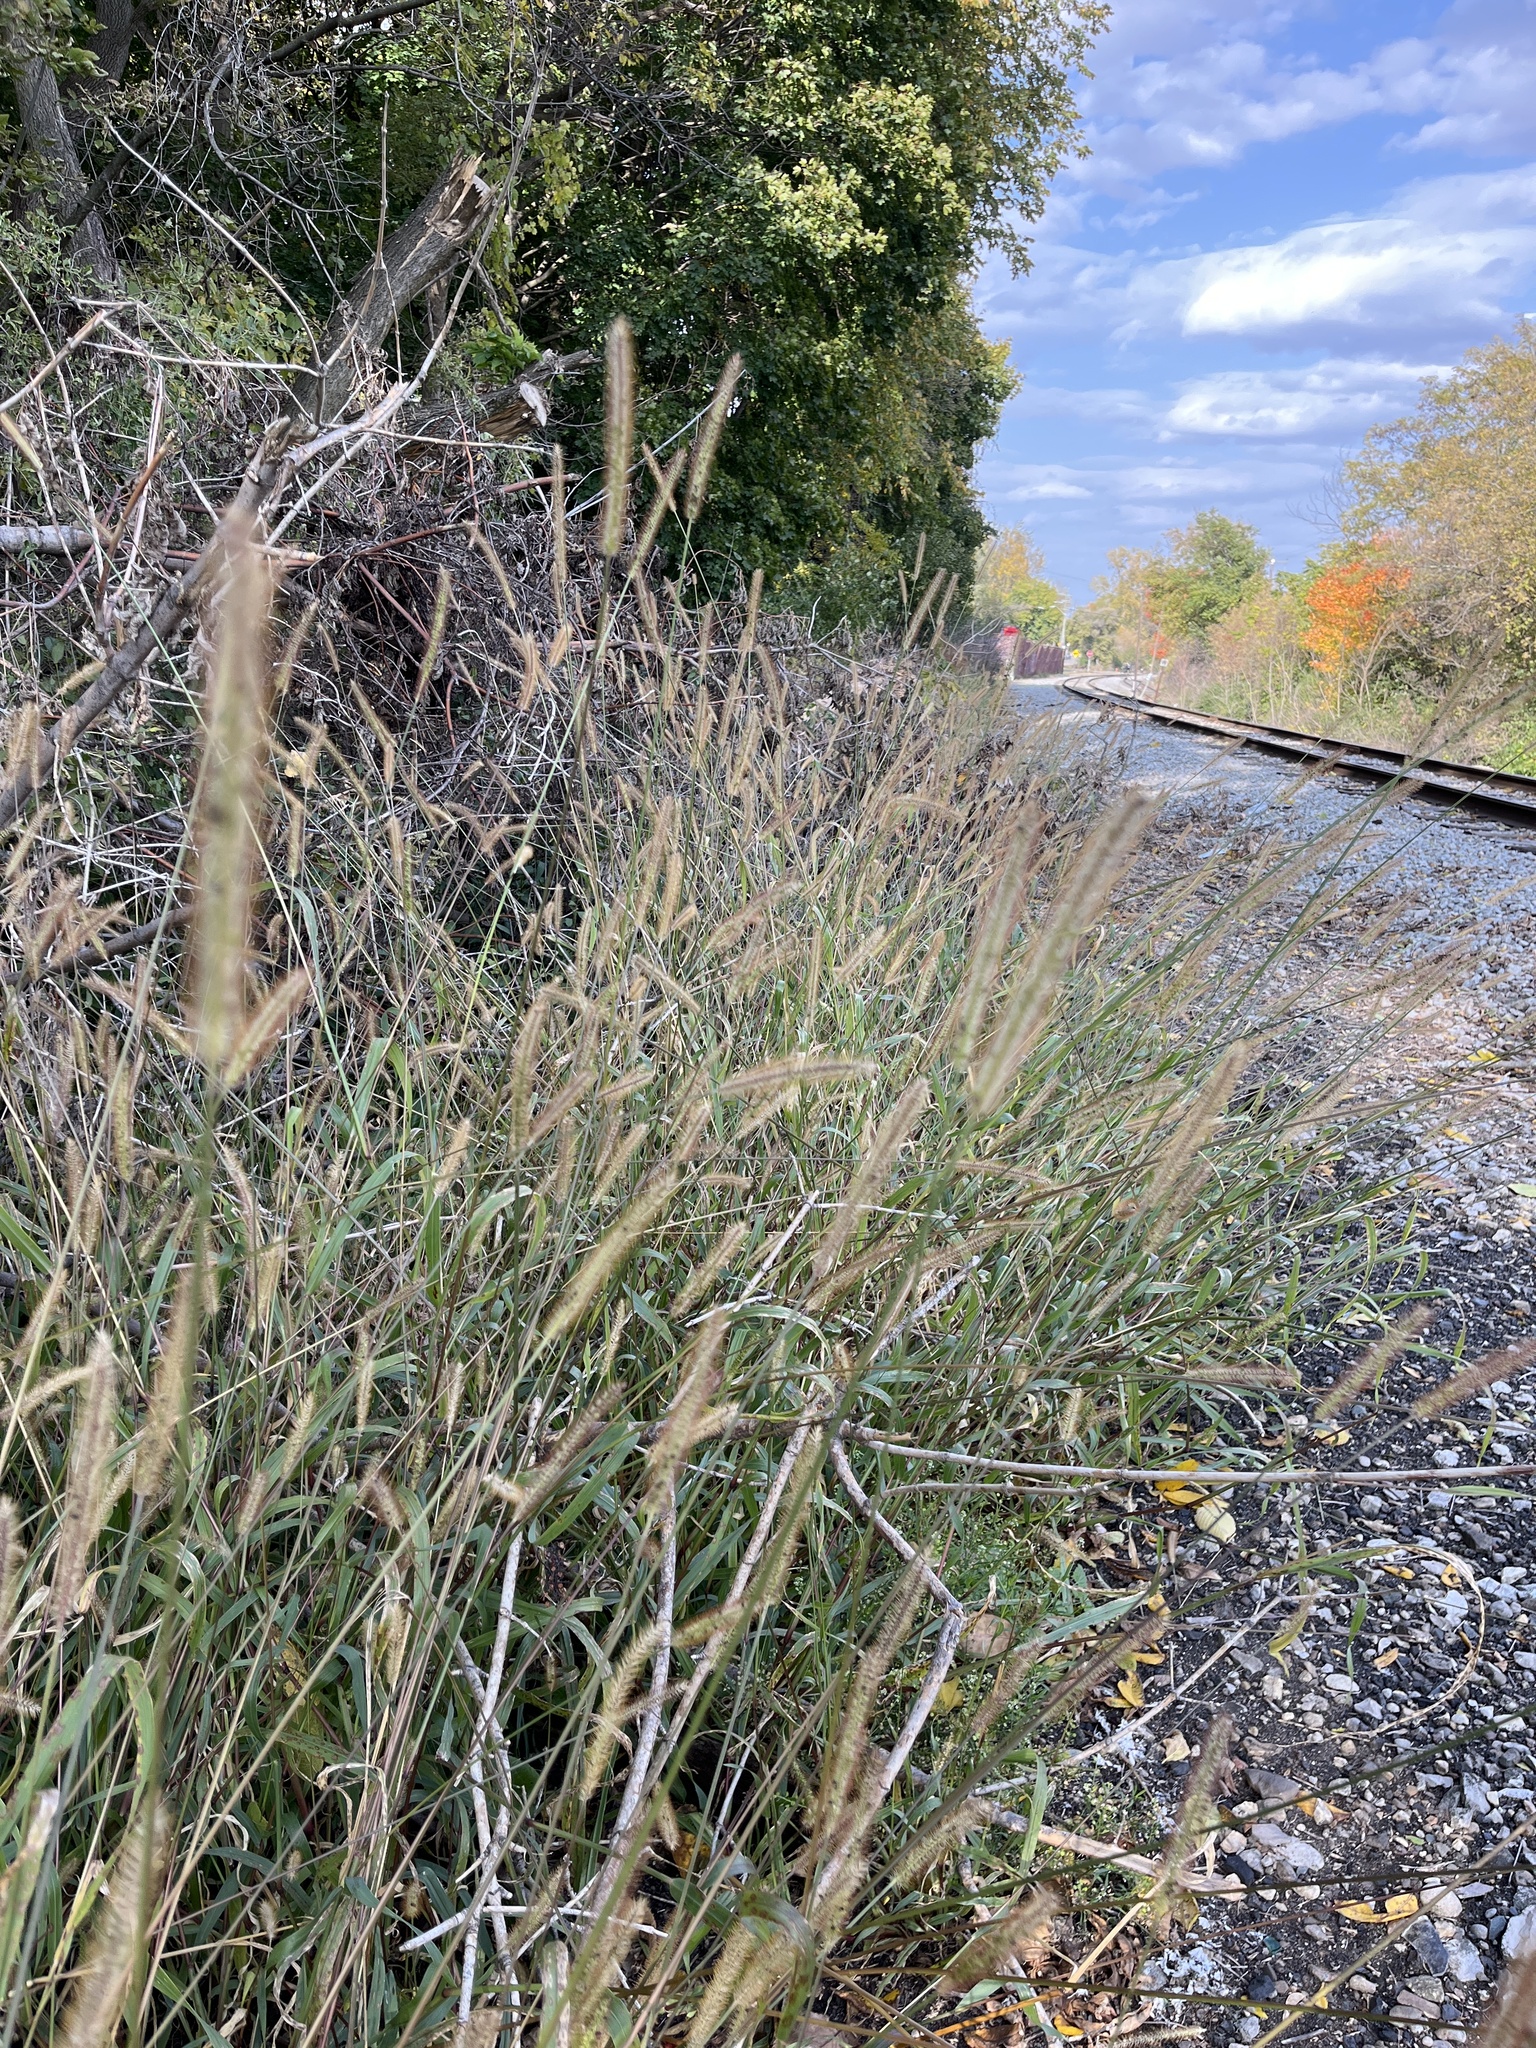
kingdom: Plantae
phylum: Tracheophyta
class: Liliopsida
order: Poales
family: Poaceae
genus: Setaria
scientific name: Setaria pumila
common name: Yellow bristle-grass
